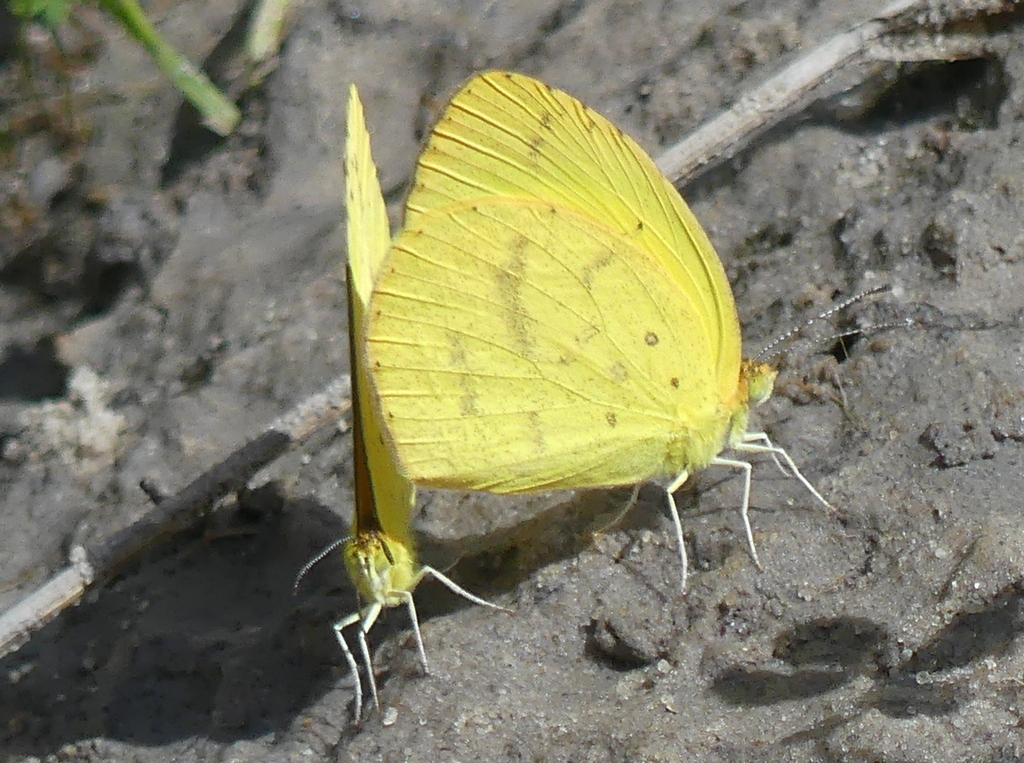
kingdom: Animalia
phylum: Arthropoda
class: Insecta
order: Lepidoptera
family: Pieridae
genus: Terias
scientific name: Terias
